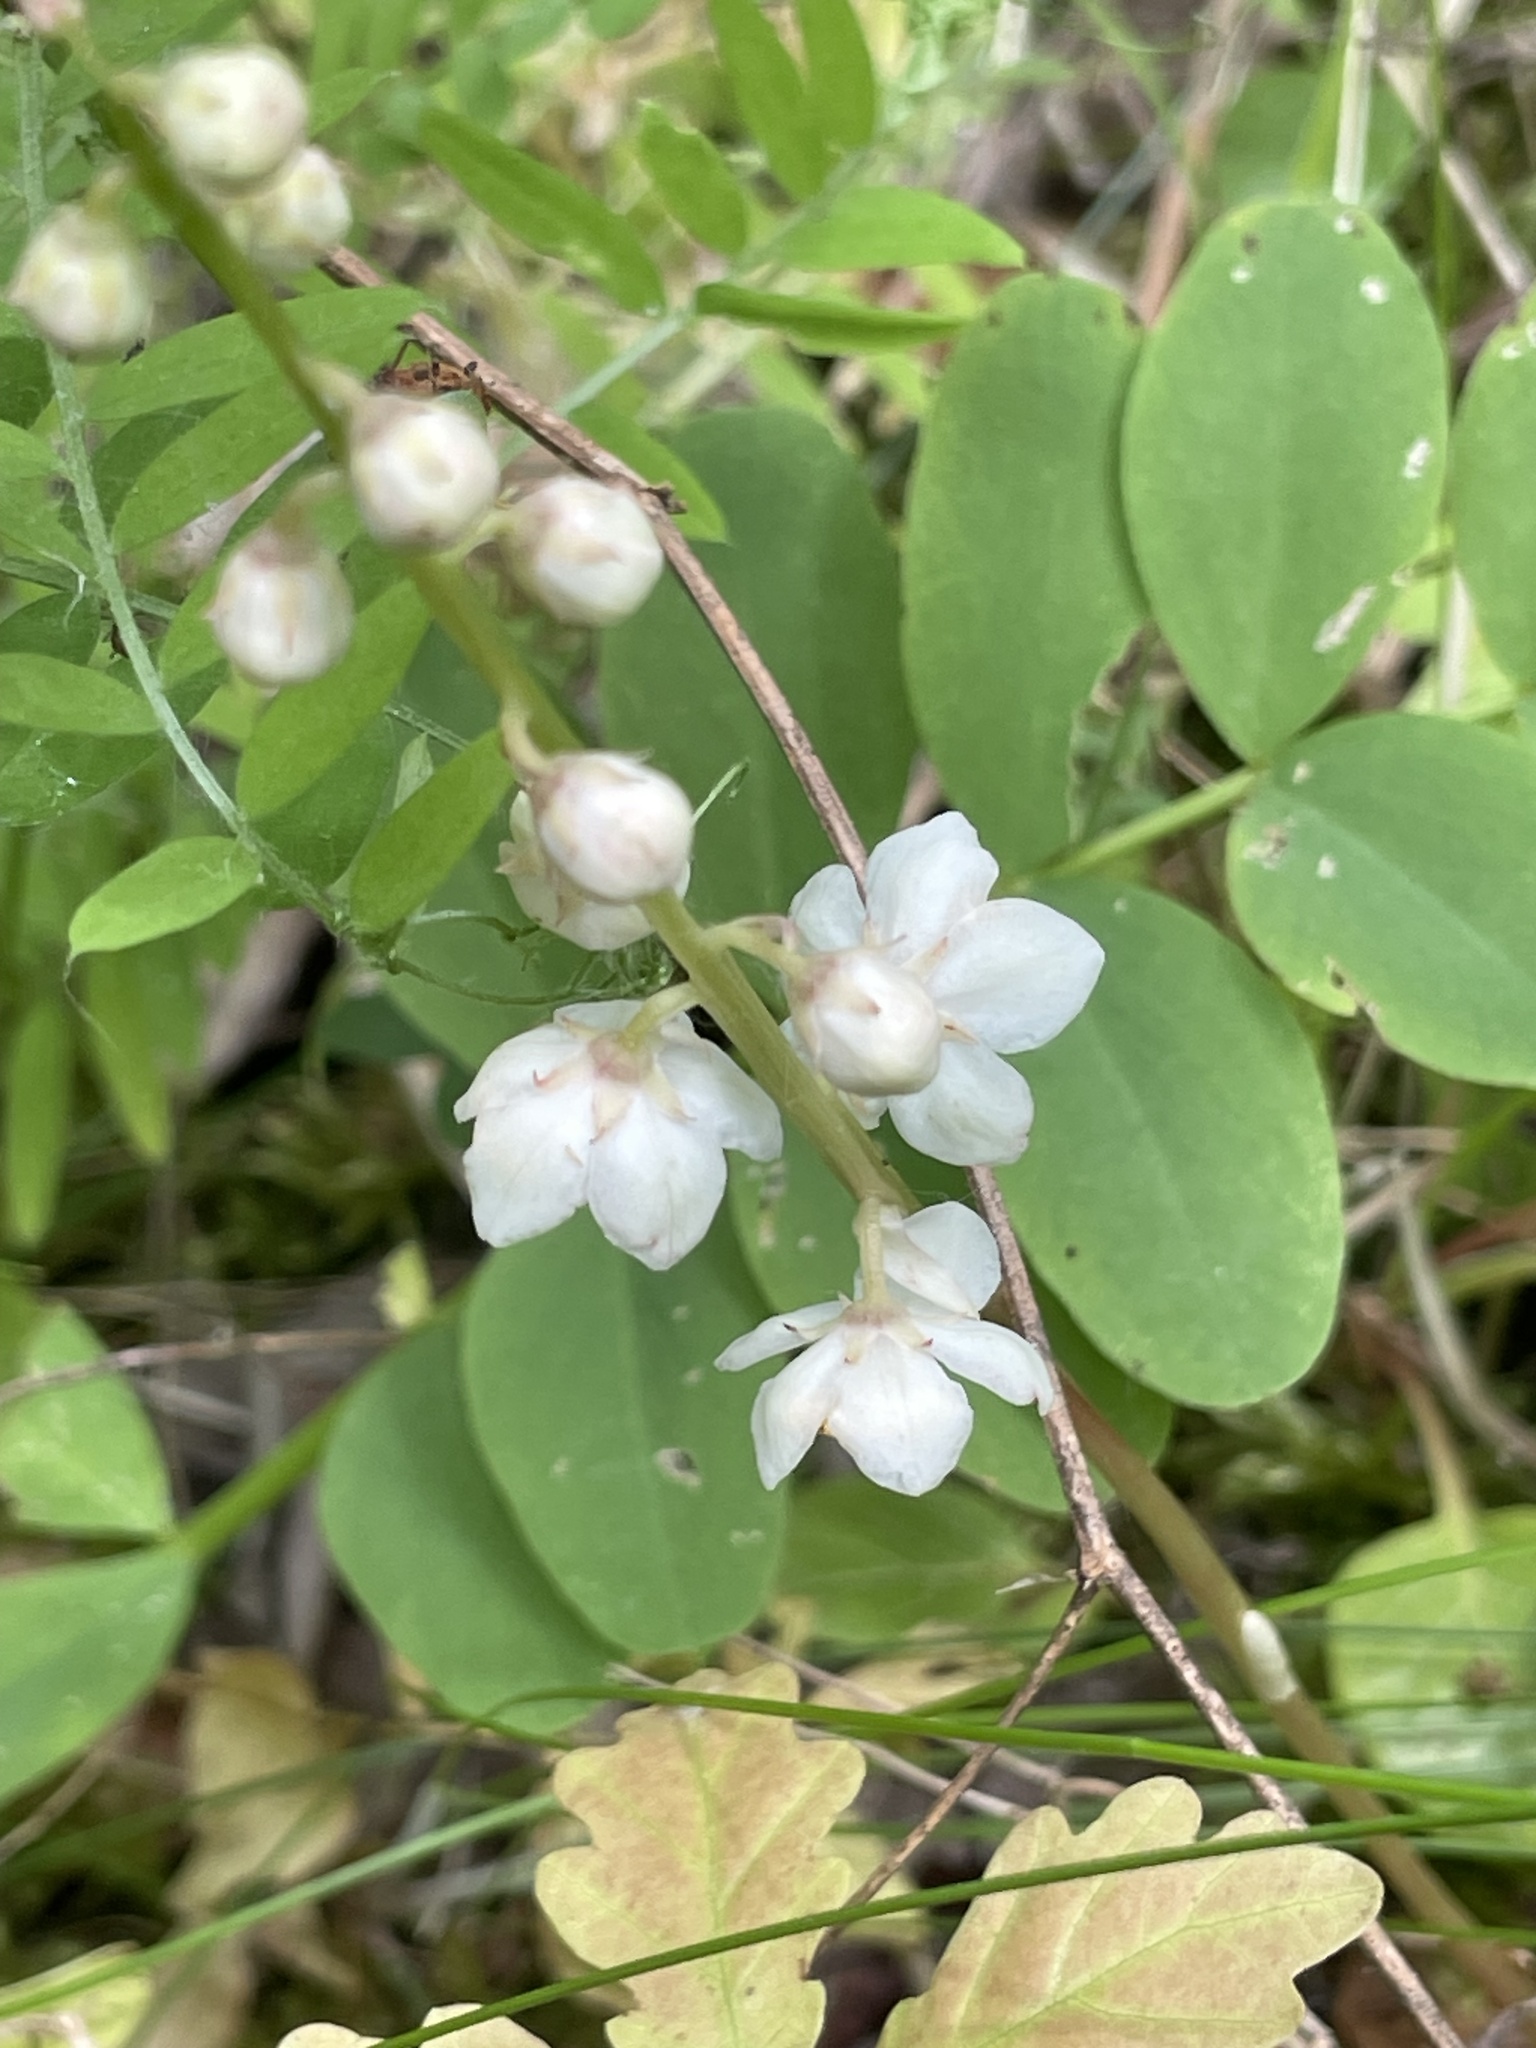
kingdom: Plantae
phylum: Tracheophyta
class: Magnoliopsida
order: Ericales
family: Ericaceae
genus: Pyrola
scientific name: Pyrola rotundifolia
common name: Round-leaved wintergreen
